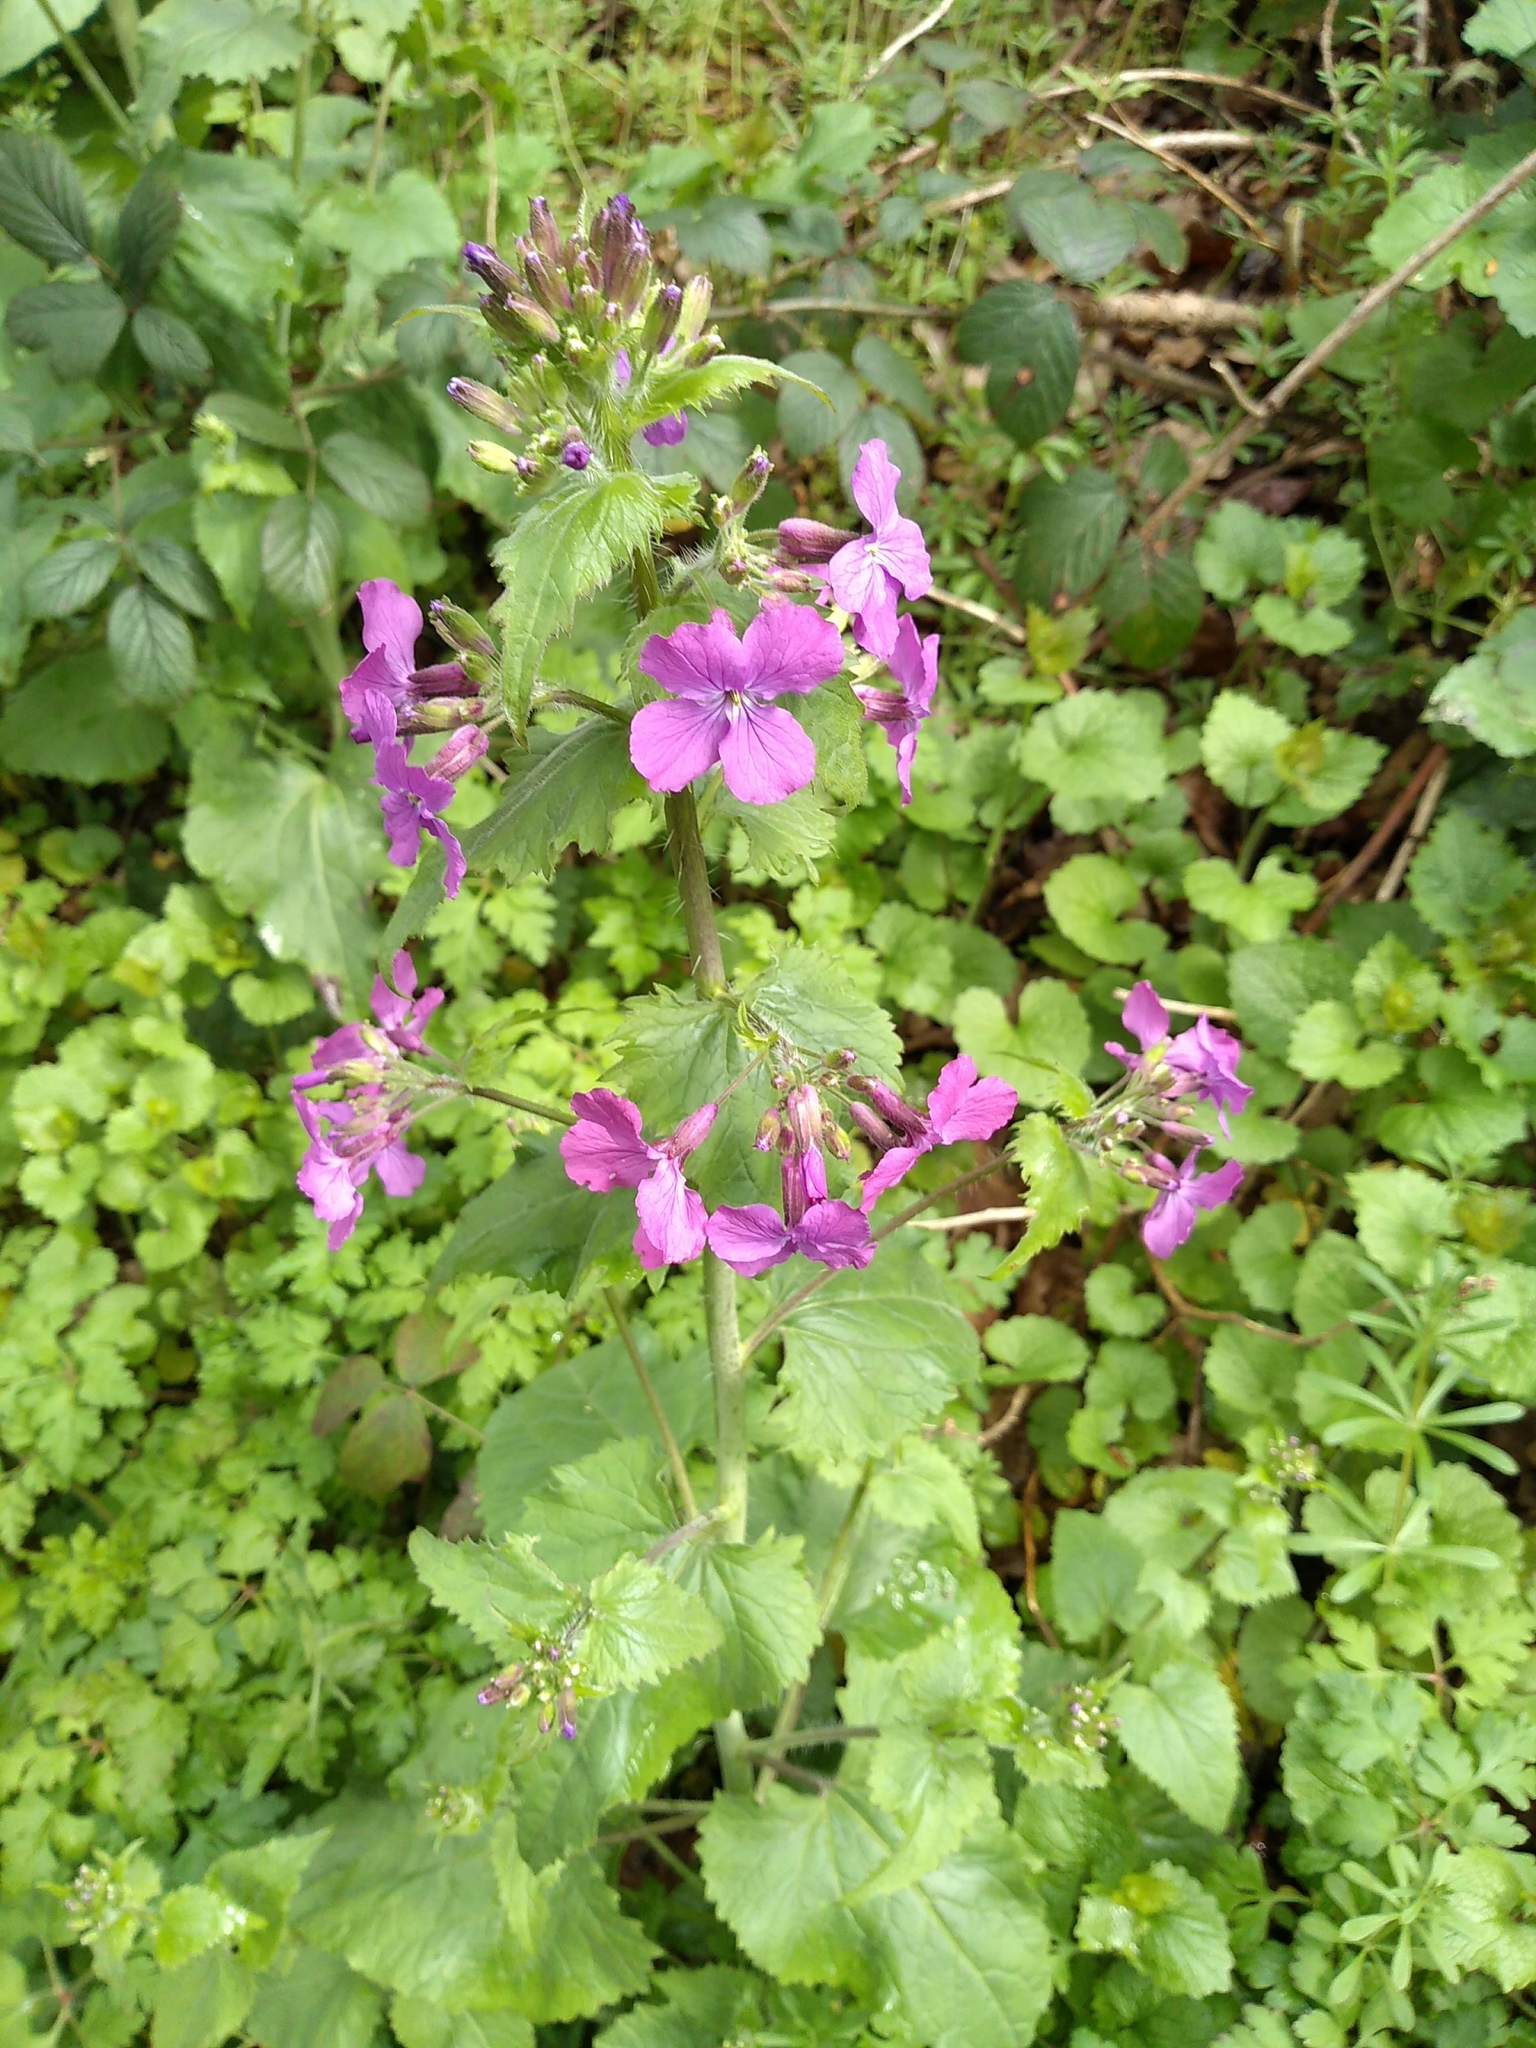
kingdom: Plantae
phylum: Tracheophyta
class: Magnoliopsida
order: Brassicales
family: Brassicaceae
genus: Lunaria
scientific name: Lunaria annua
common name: Honesty
